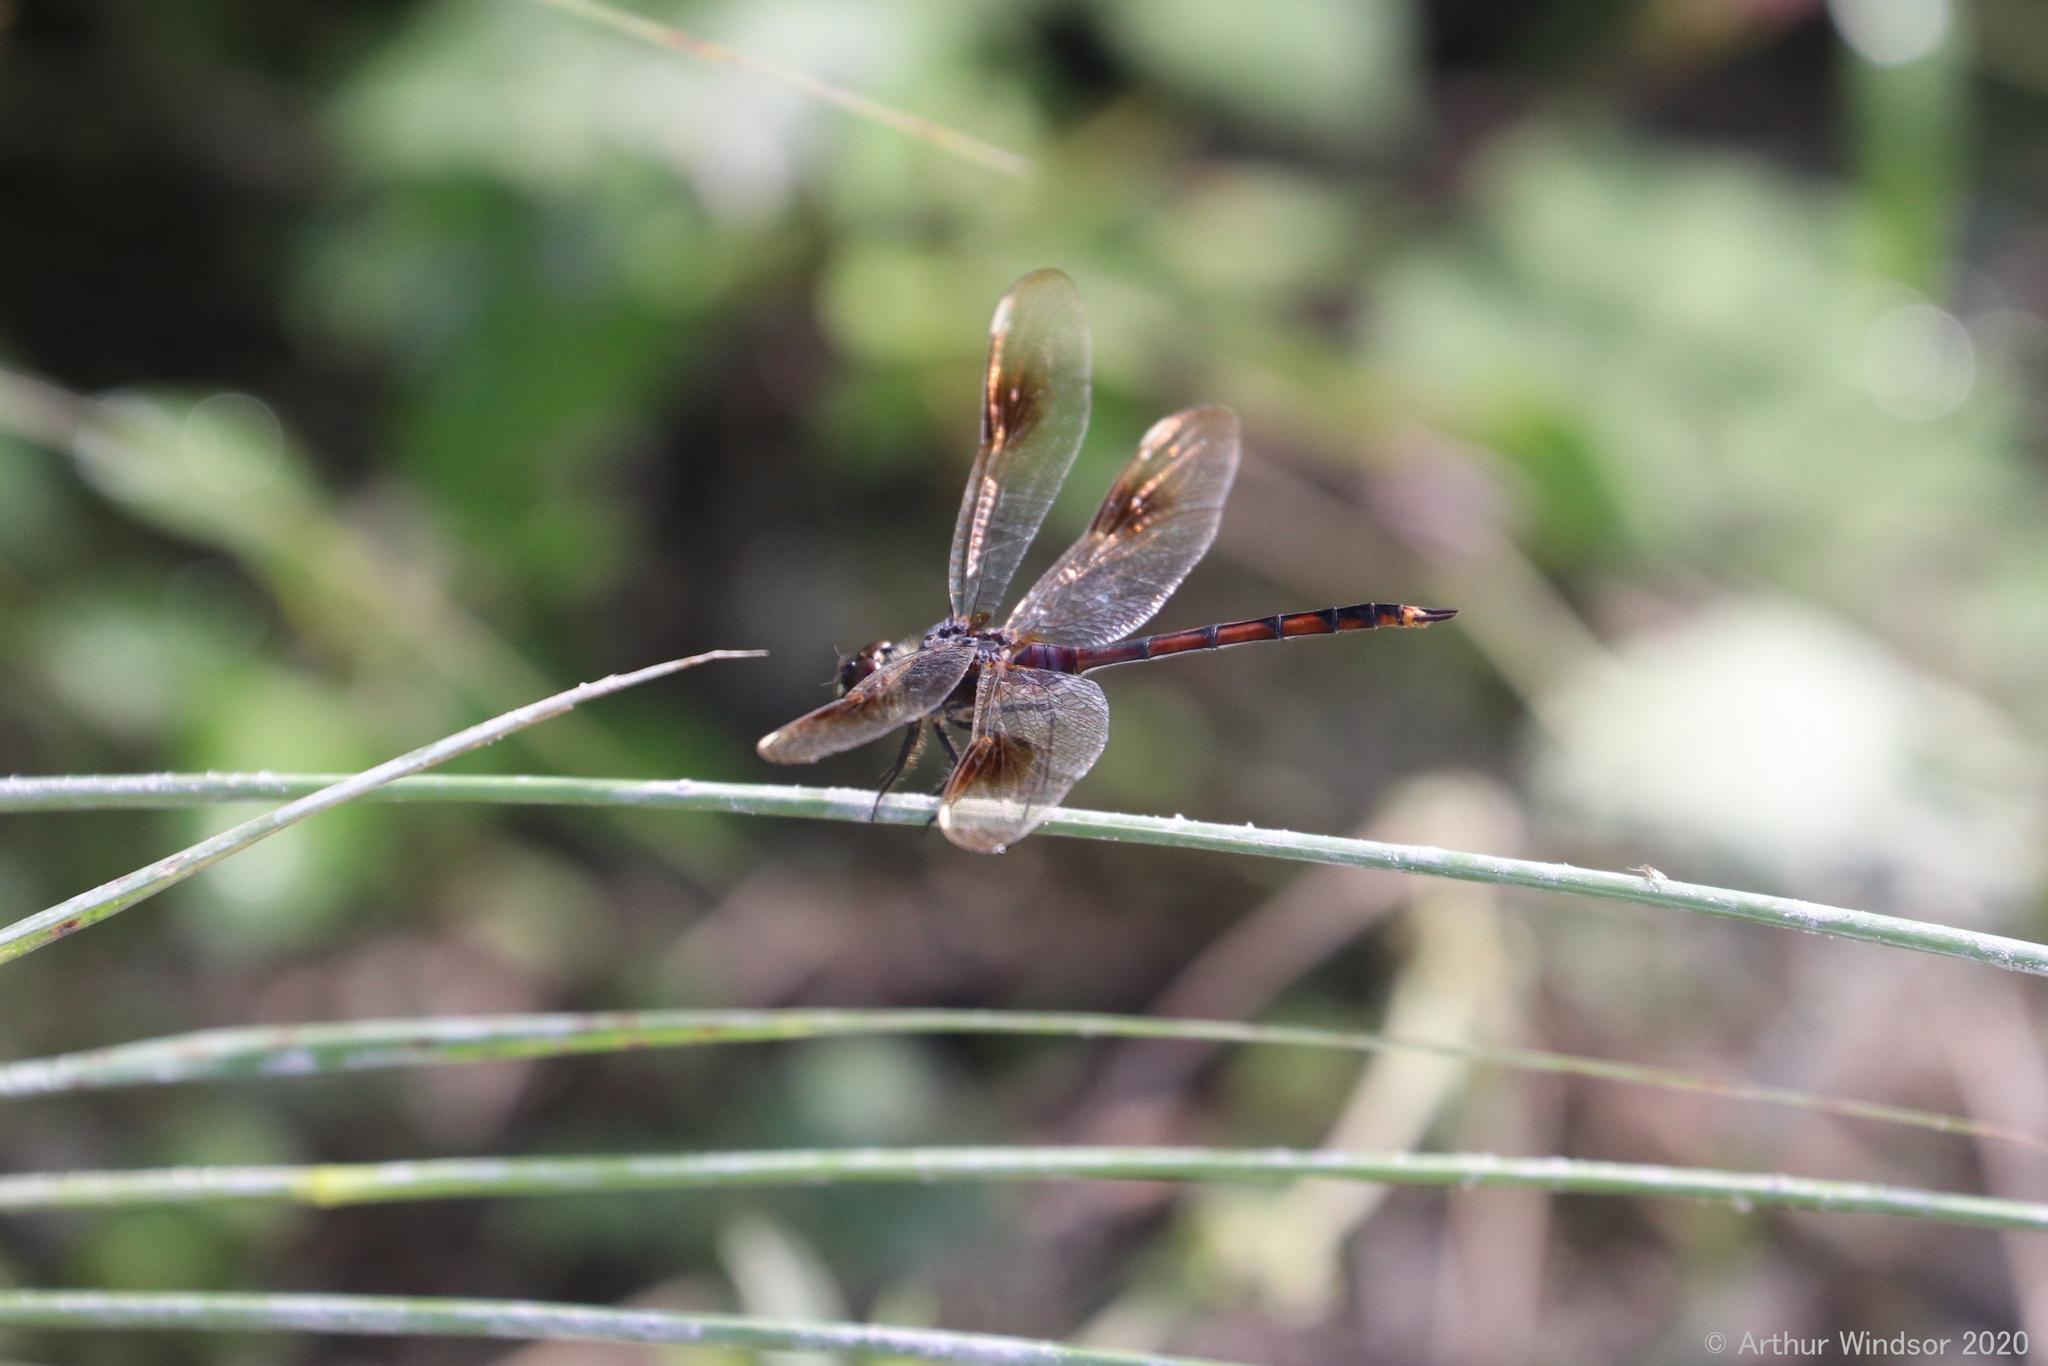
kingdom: Animalia
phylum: Arthropoda
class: Insecta
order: Odonata
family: Libellulidae
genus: Brachymesia
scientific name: Brachymesia gravida
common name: Four-spotted pennant
